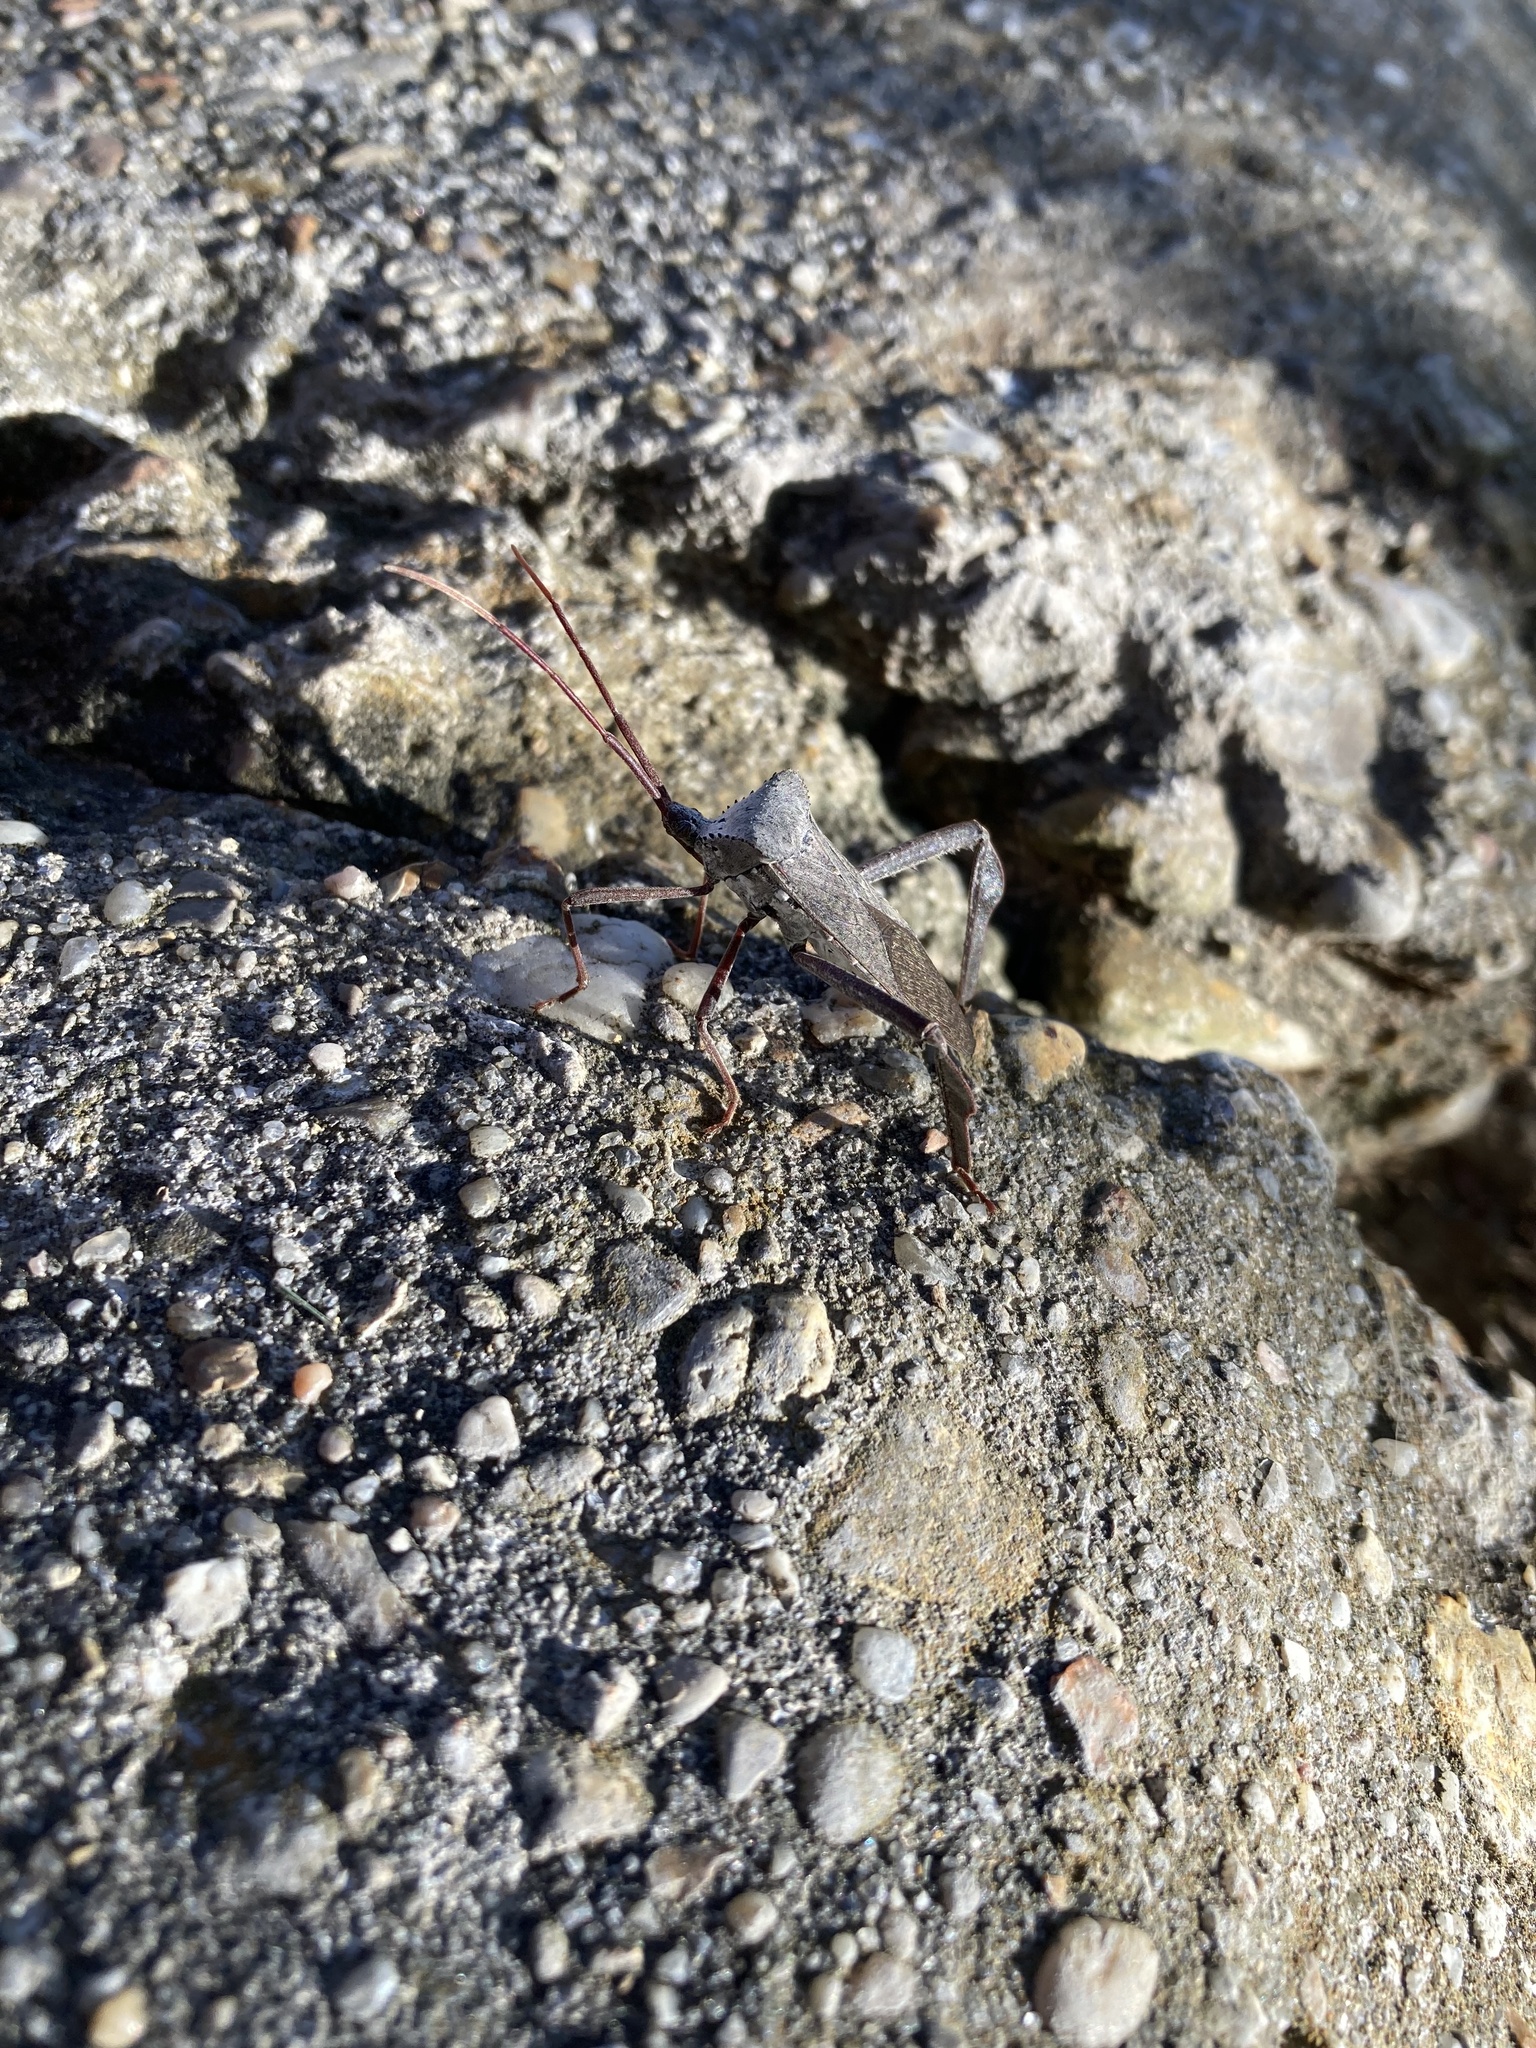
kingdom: Animalia
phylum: Arthropoda
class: Insecta
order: Hemiptera
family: Coreidae
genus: Acanthocephala
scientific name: Acanthocephala declivis
